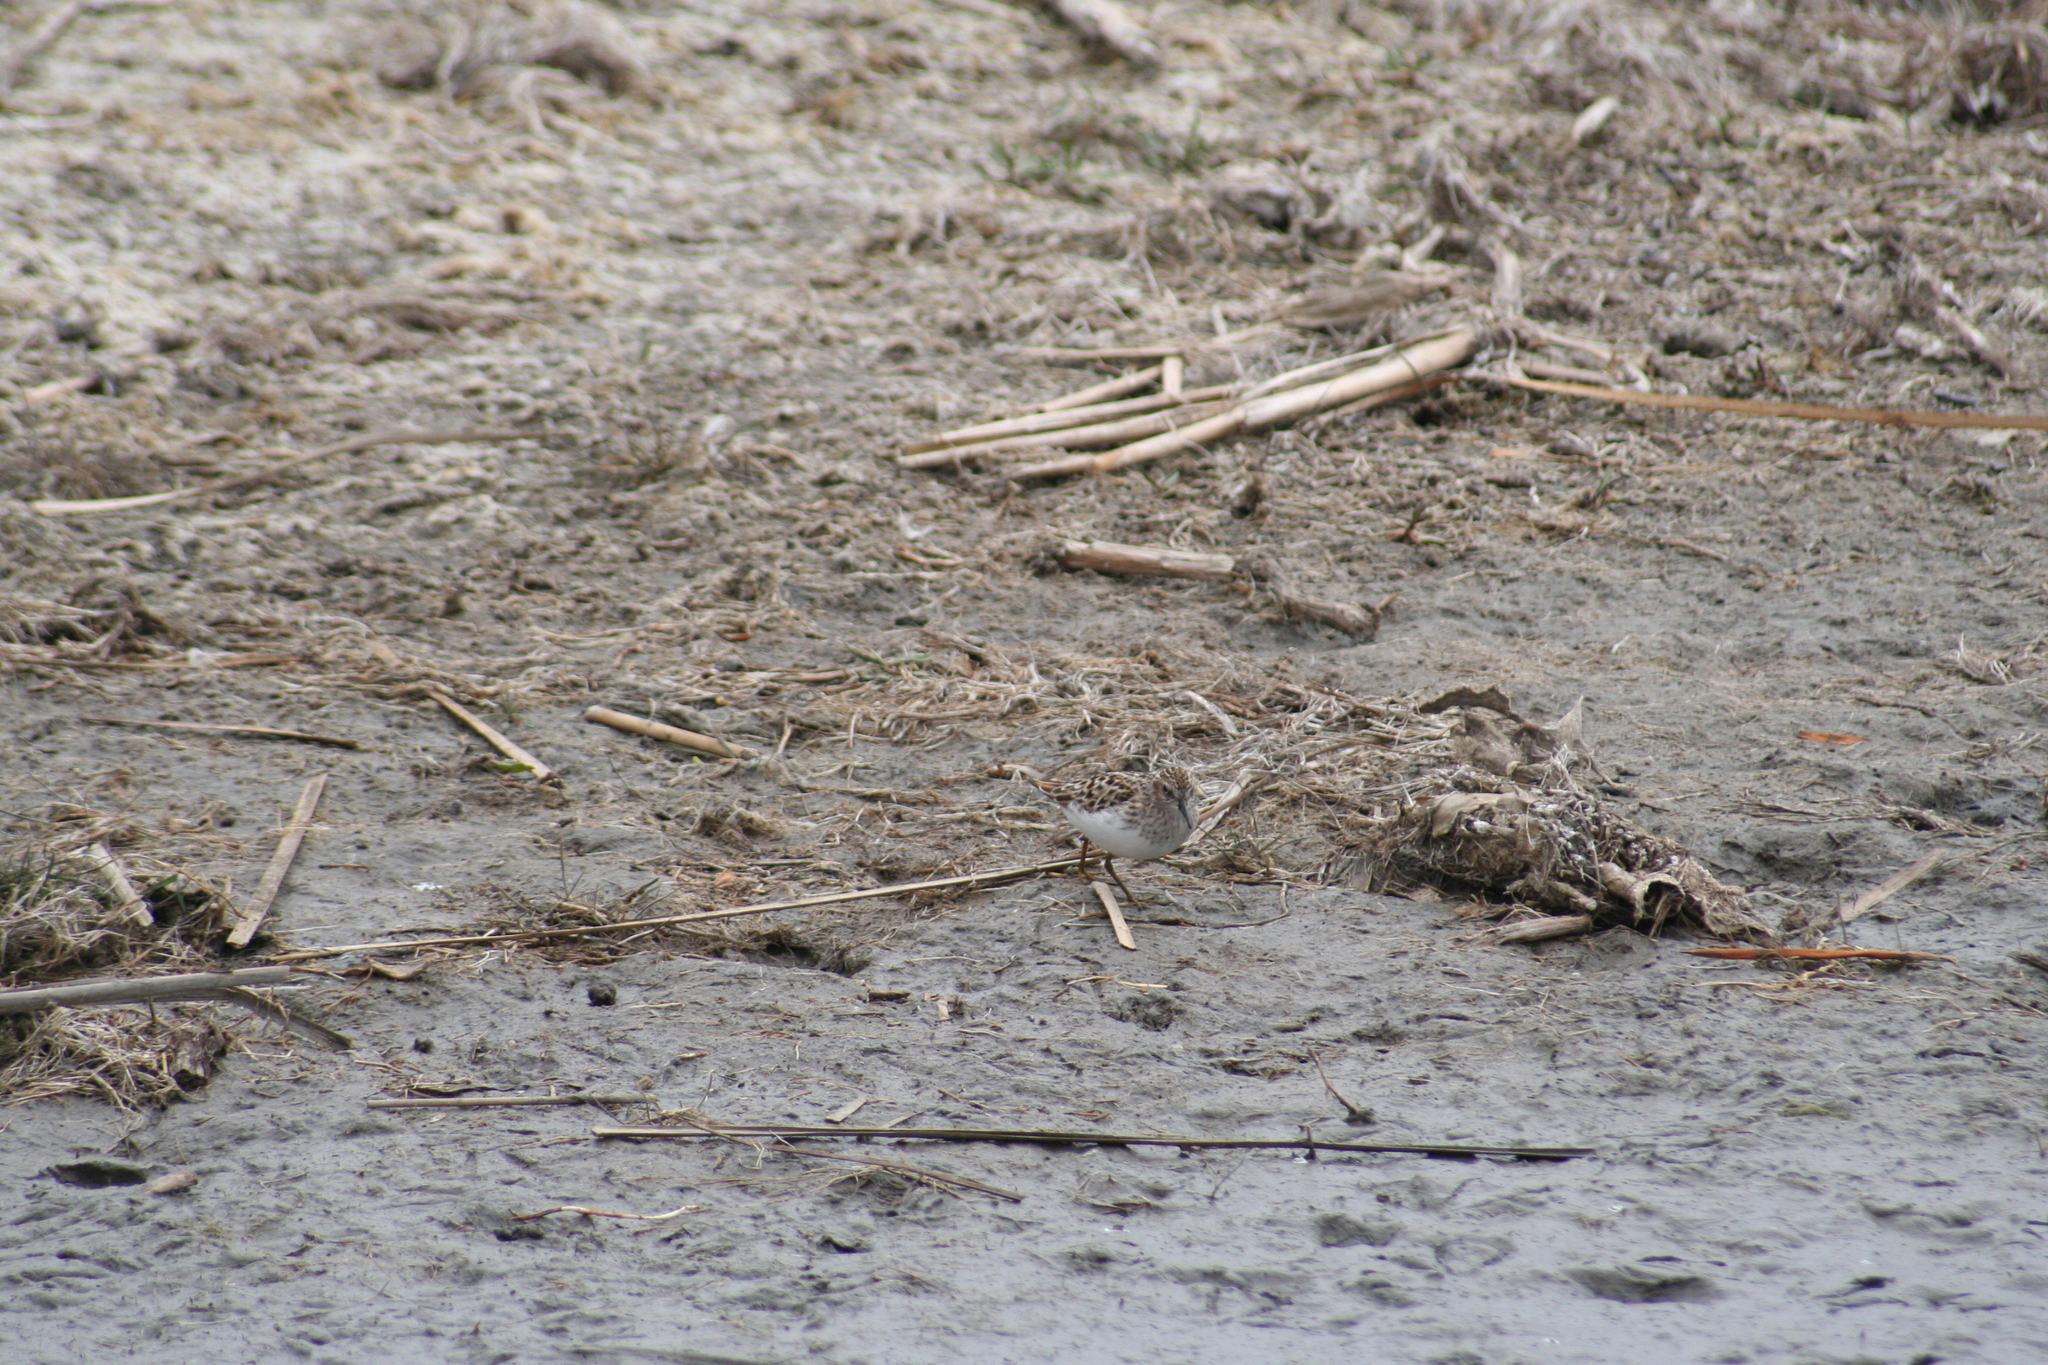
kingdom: Animalia
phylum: Chordata
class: Aves
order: Charadriiformes
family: Scolopacidae
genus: Calidris
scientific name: Calidris minutilla
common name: Least sandpiper
